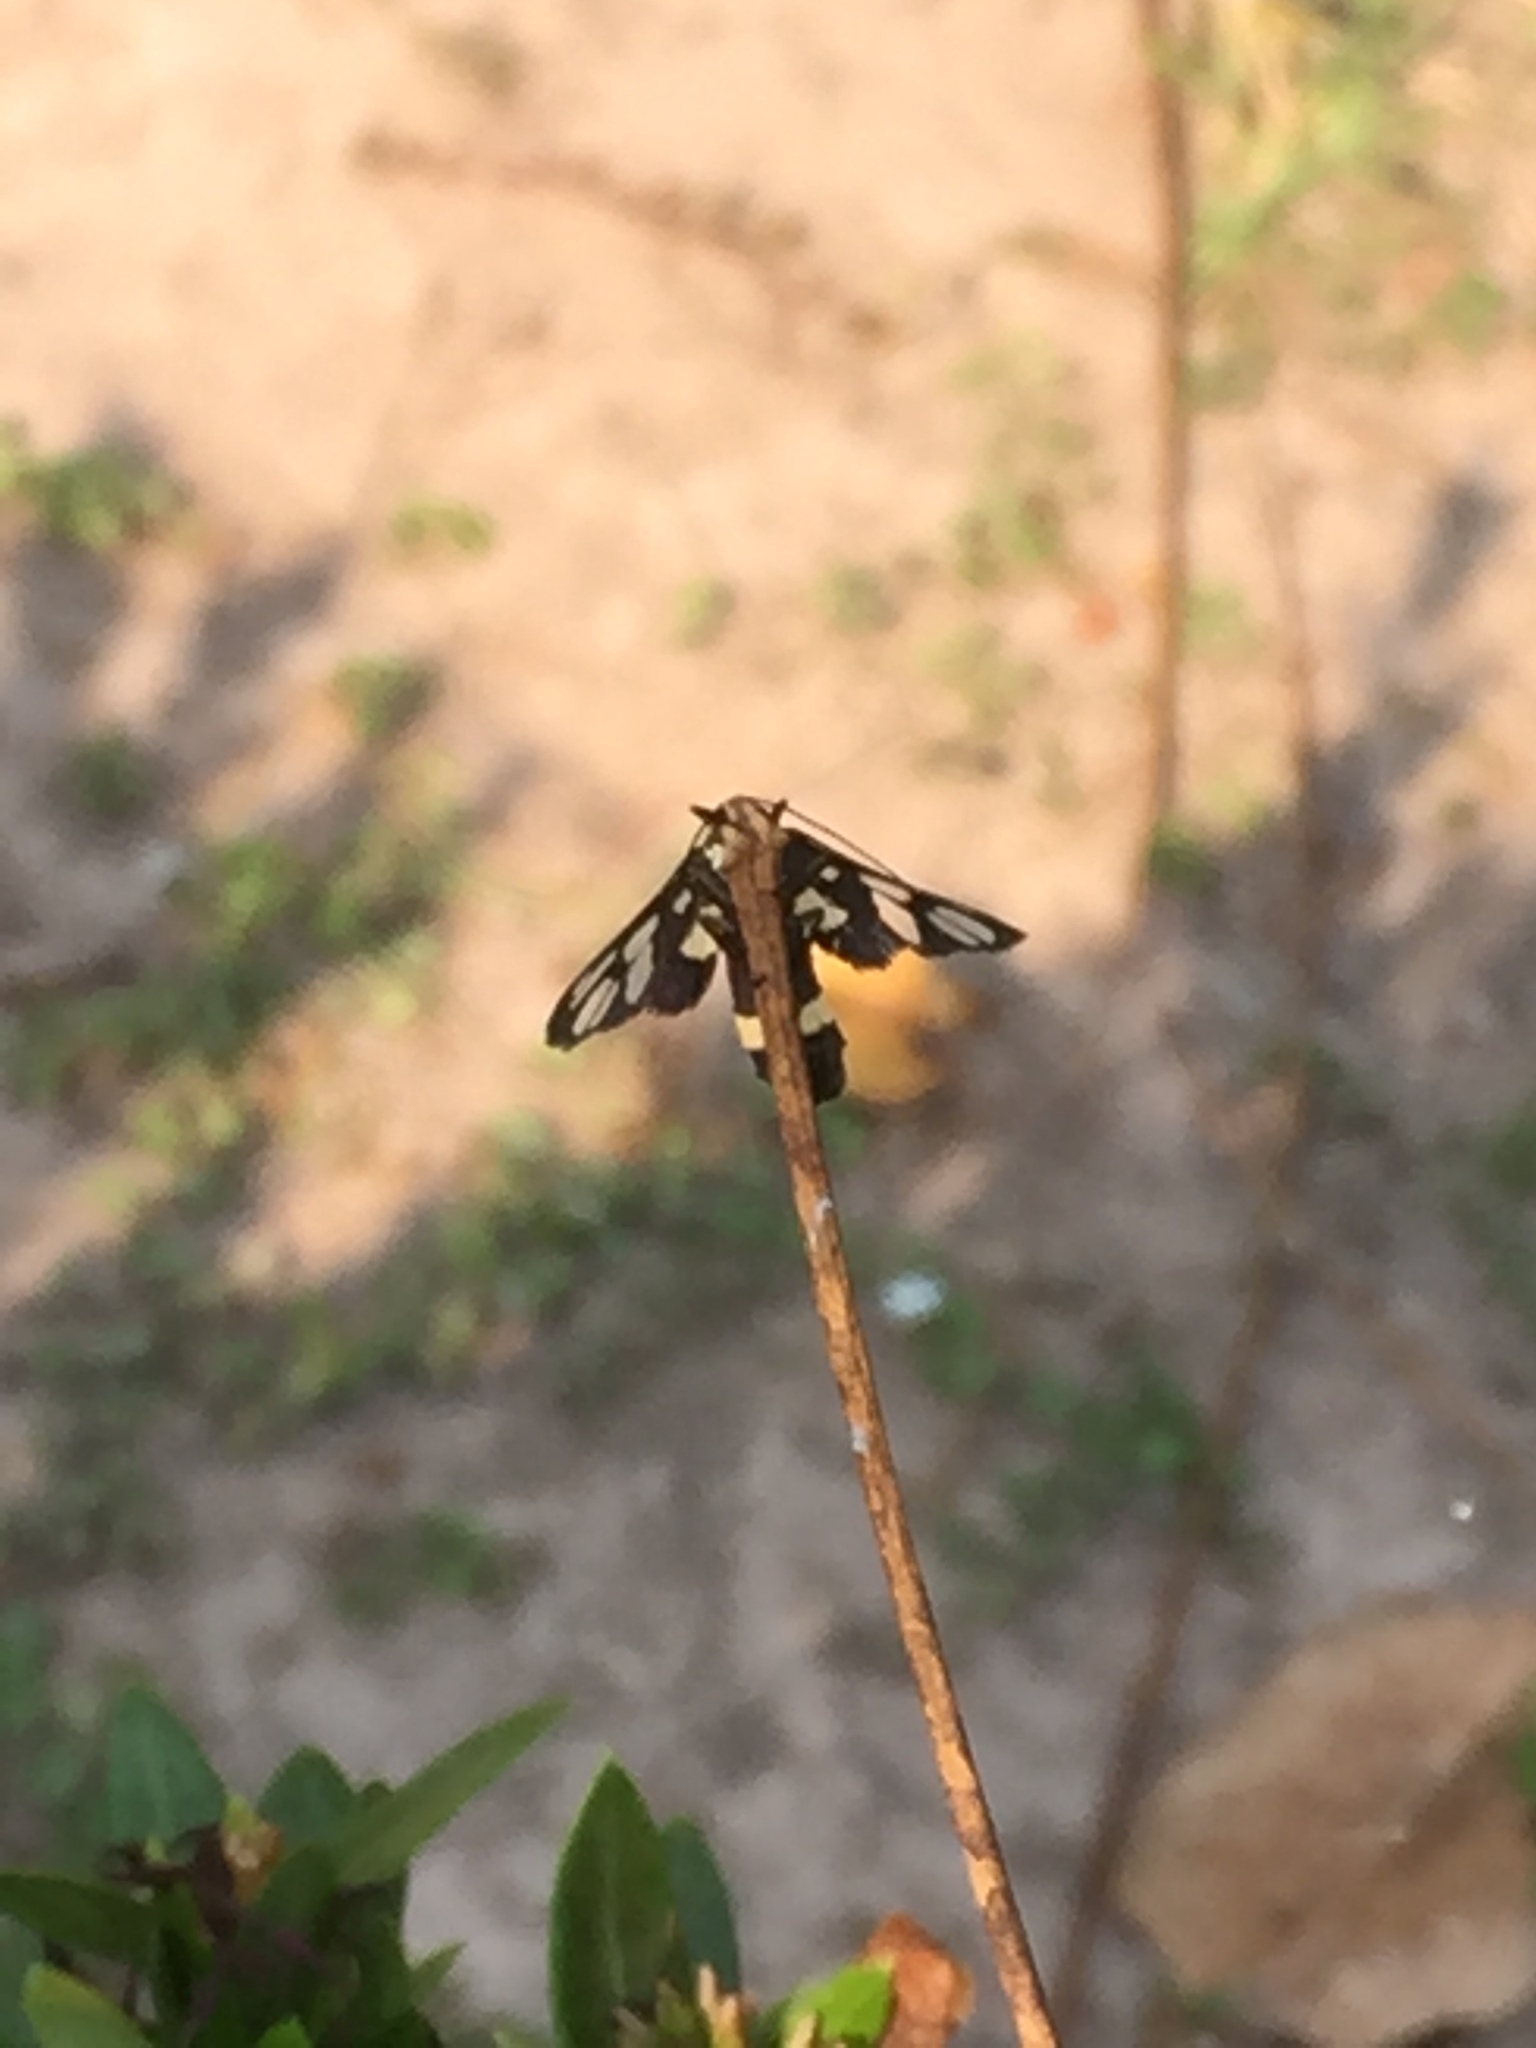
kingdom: Animalia
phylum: Arthropoda
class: Insecta
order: Lepidoptera
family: Erebidae
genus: Amata
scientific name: Amata sperbius
